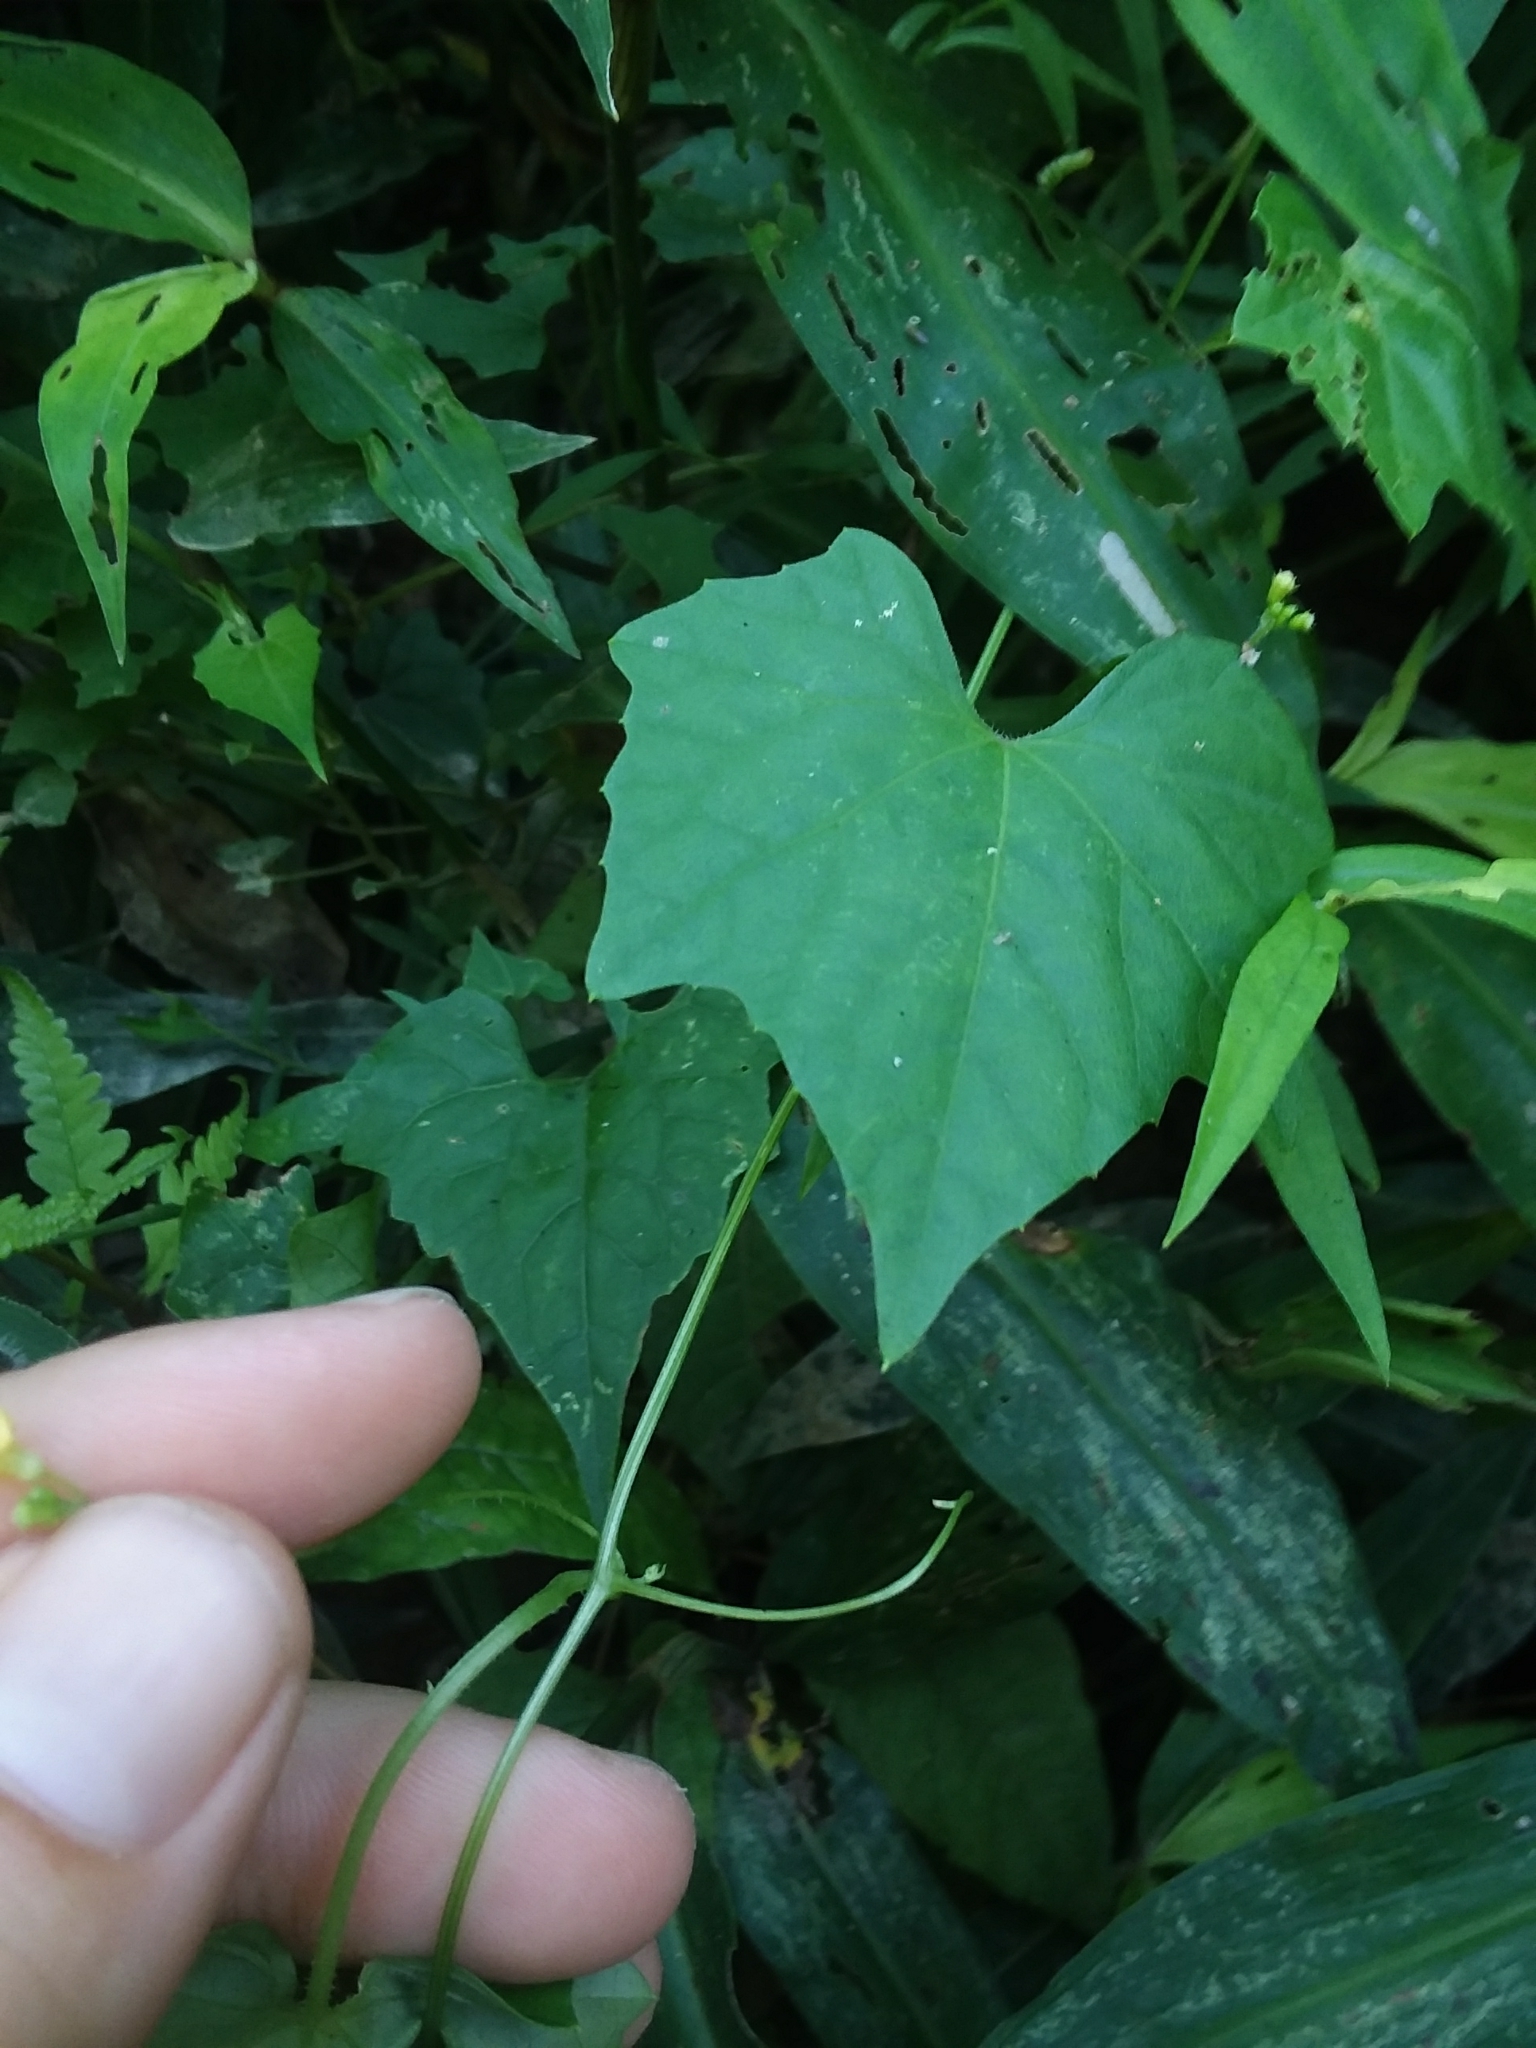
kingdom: Plantae
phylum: Tracheophyta
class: Magnoliopsida
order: Cucurbitales
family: Cucurbitaceae
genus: Melothria
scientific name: Melothria pendula
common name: Creeping-cucumber
